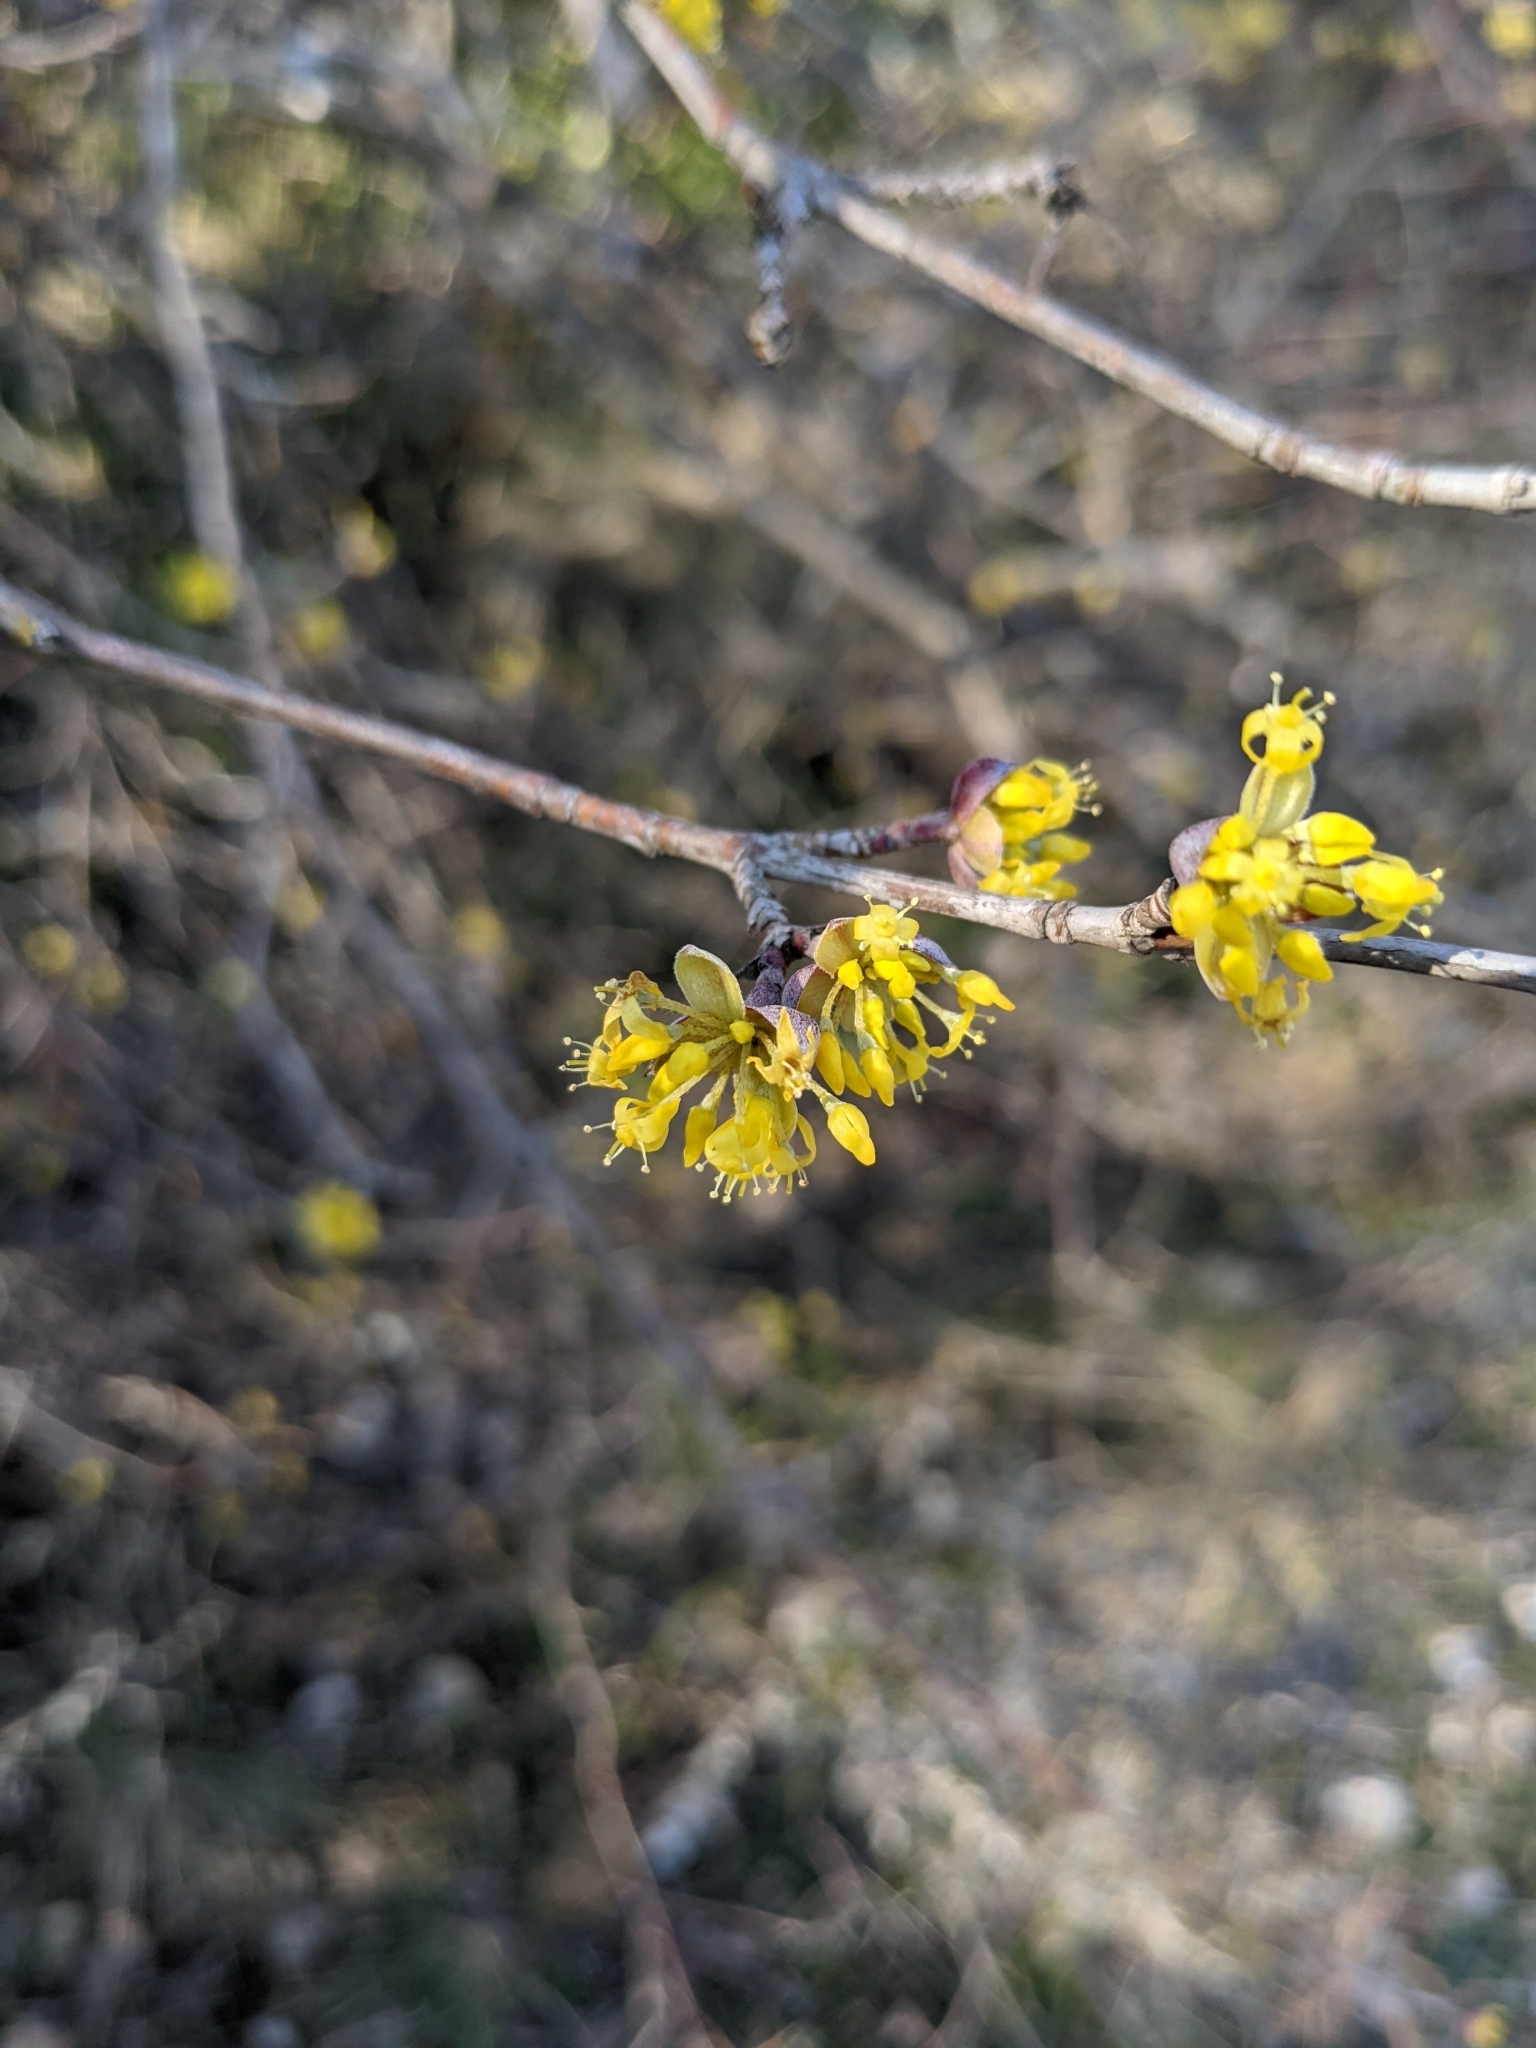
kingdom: Plantae
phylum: Tracheophyta
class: Magnoliopsida
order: Cornales
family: Cornaceae
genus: Cornus
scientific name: Cornus mas
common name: Cornelian-cherry
